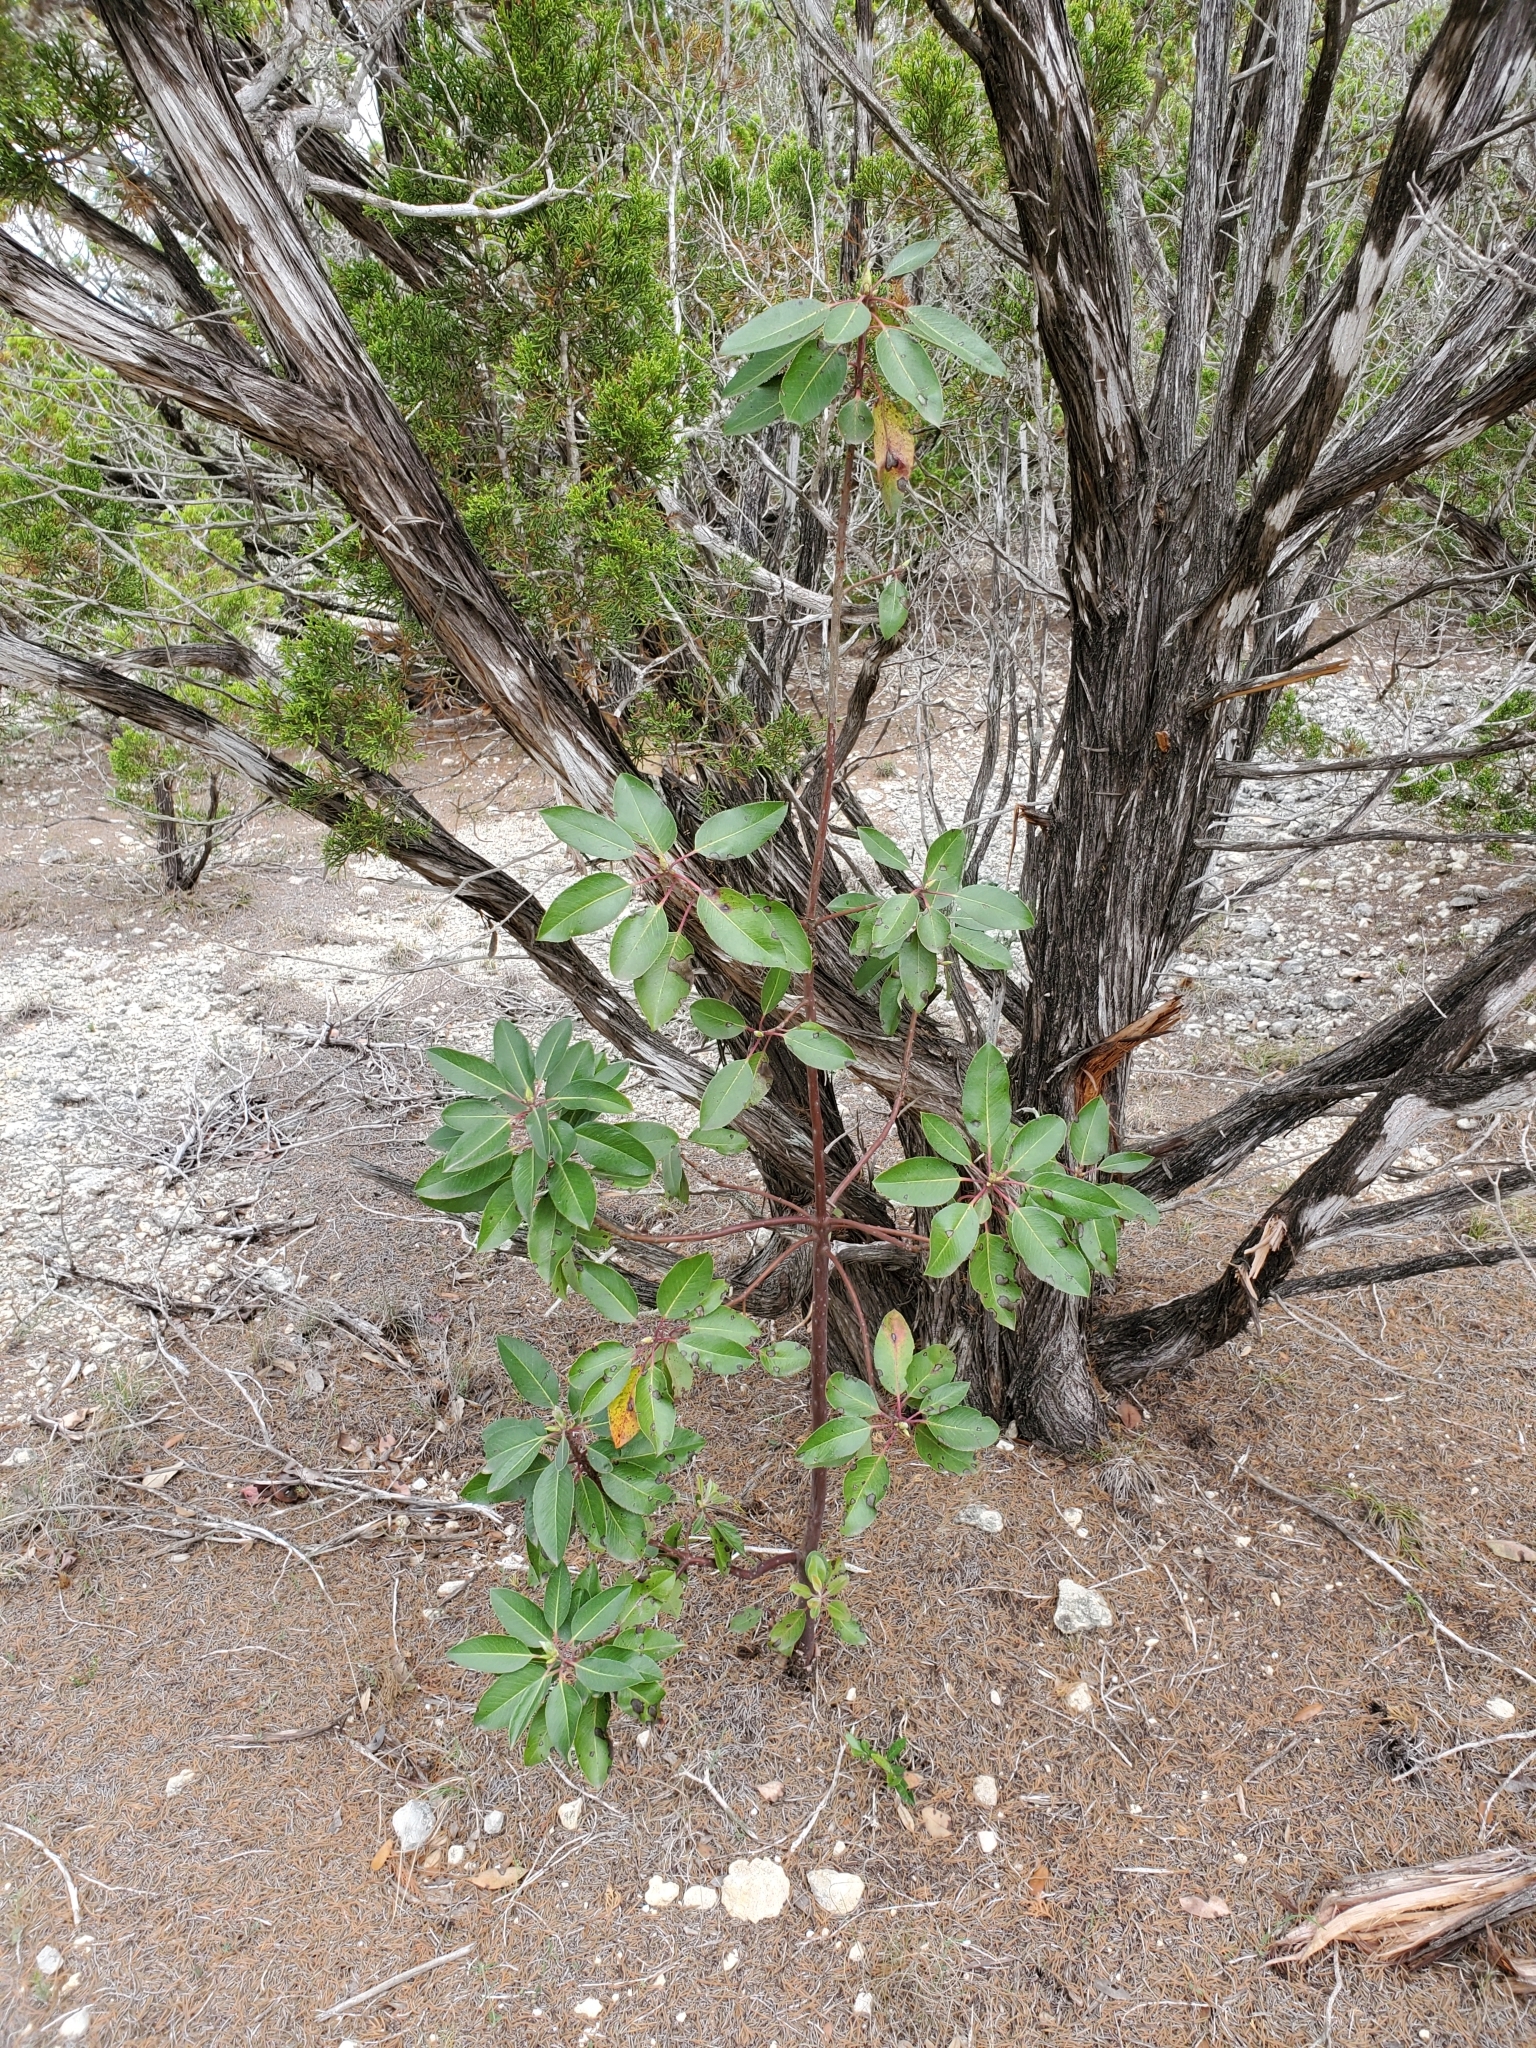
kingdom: Plantae
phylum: Tracheophyta
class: Magnoliopsida
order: Ericales
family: Ericaceae
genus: Arbutus
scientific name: Arbutus xalapensis
